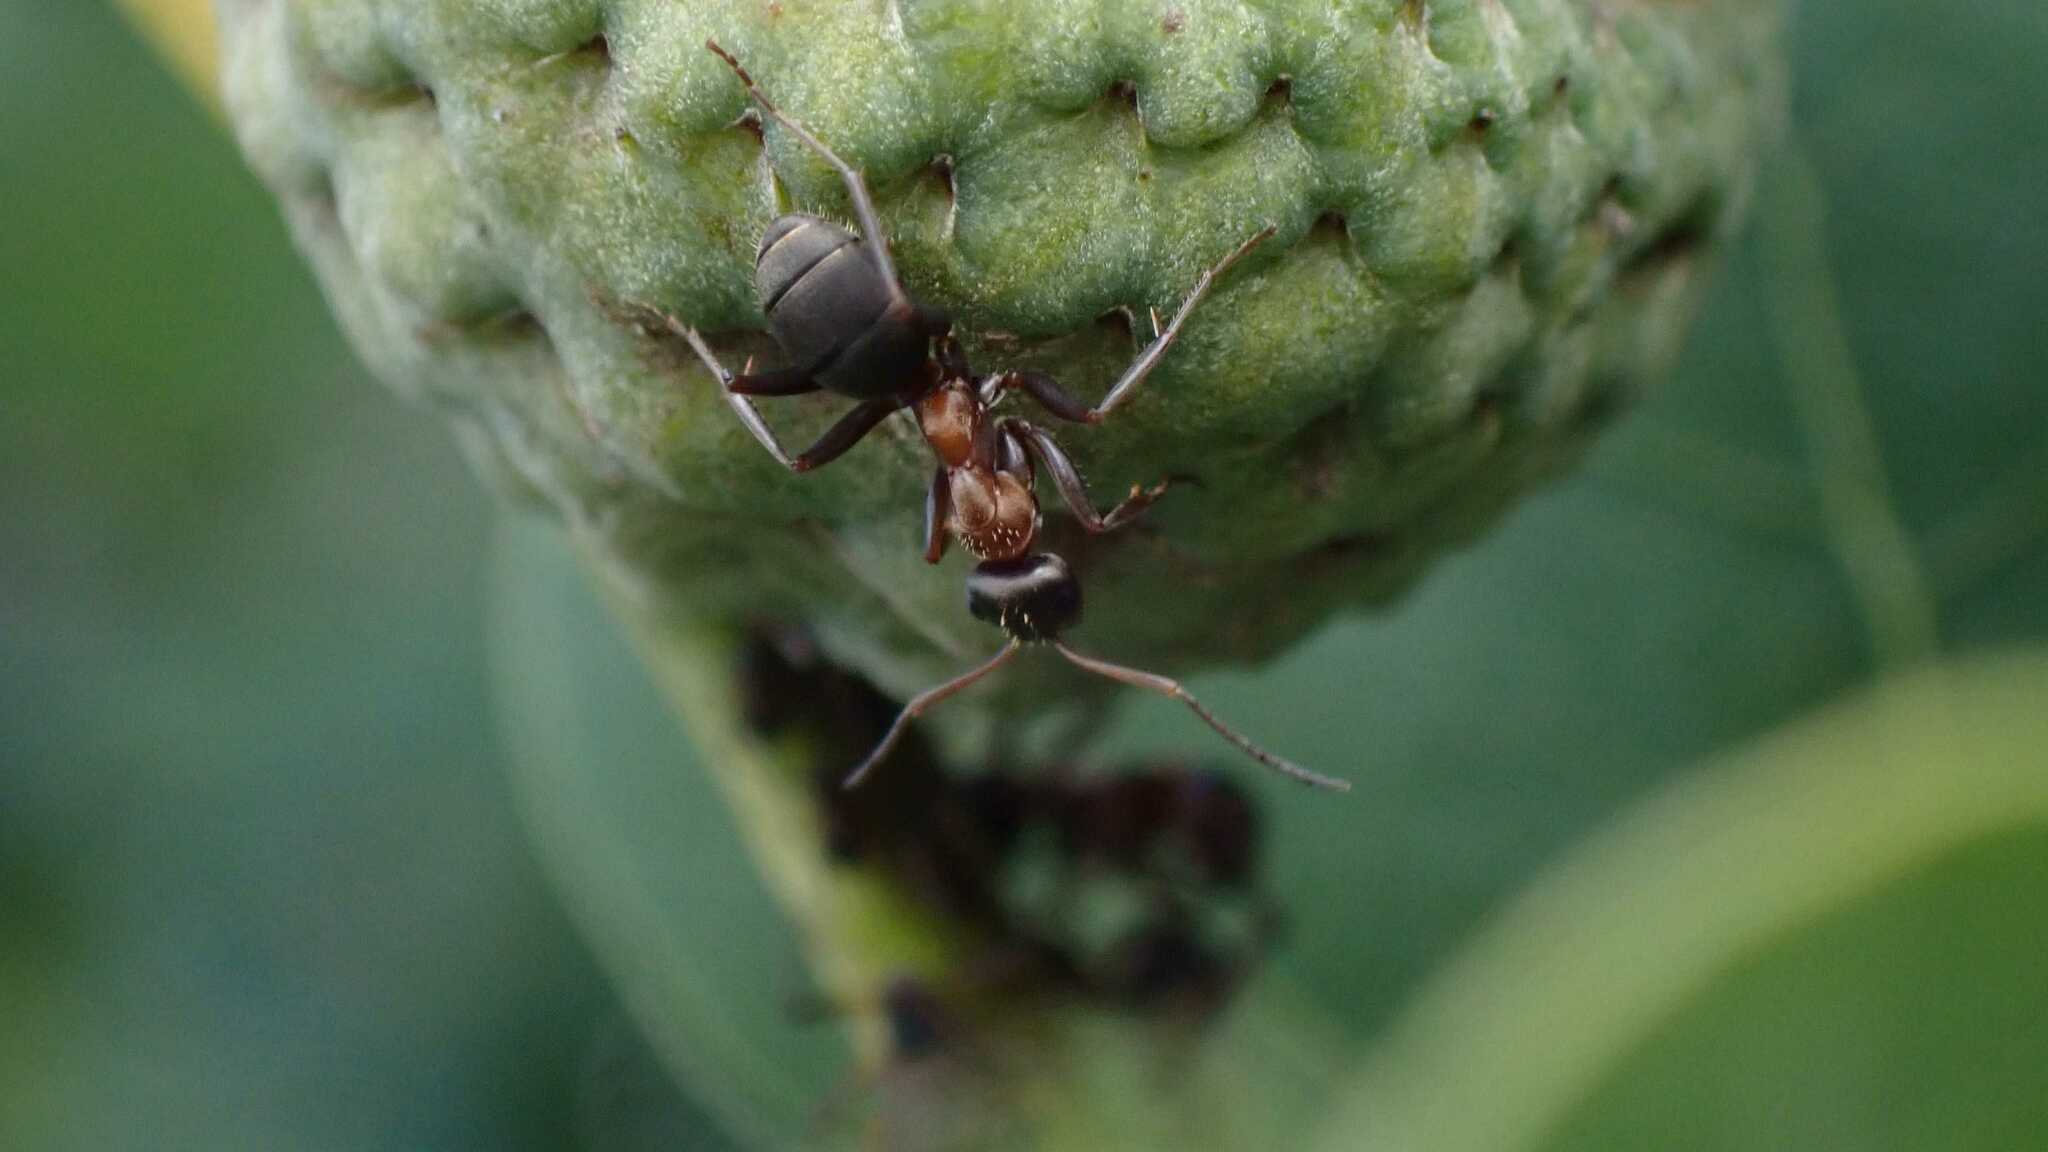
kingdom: Animalia
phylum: Arthropoda
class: Insecta
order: Hymenoptera
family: Formicidae
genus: Formica
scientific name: Formica rufibarbis
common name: Red barbed ant
